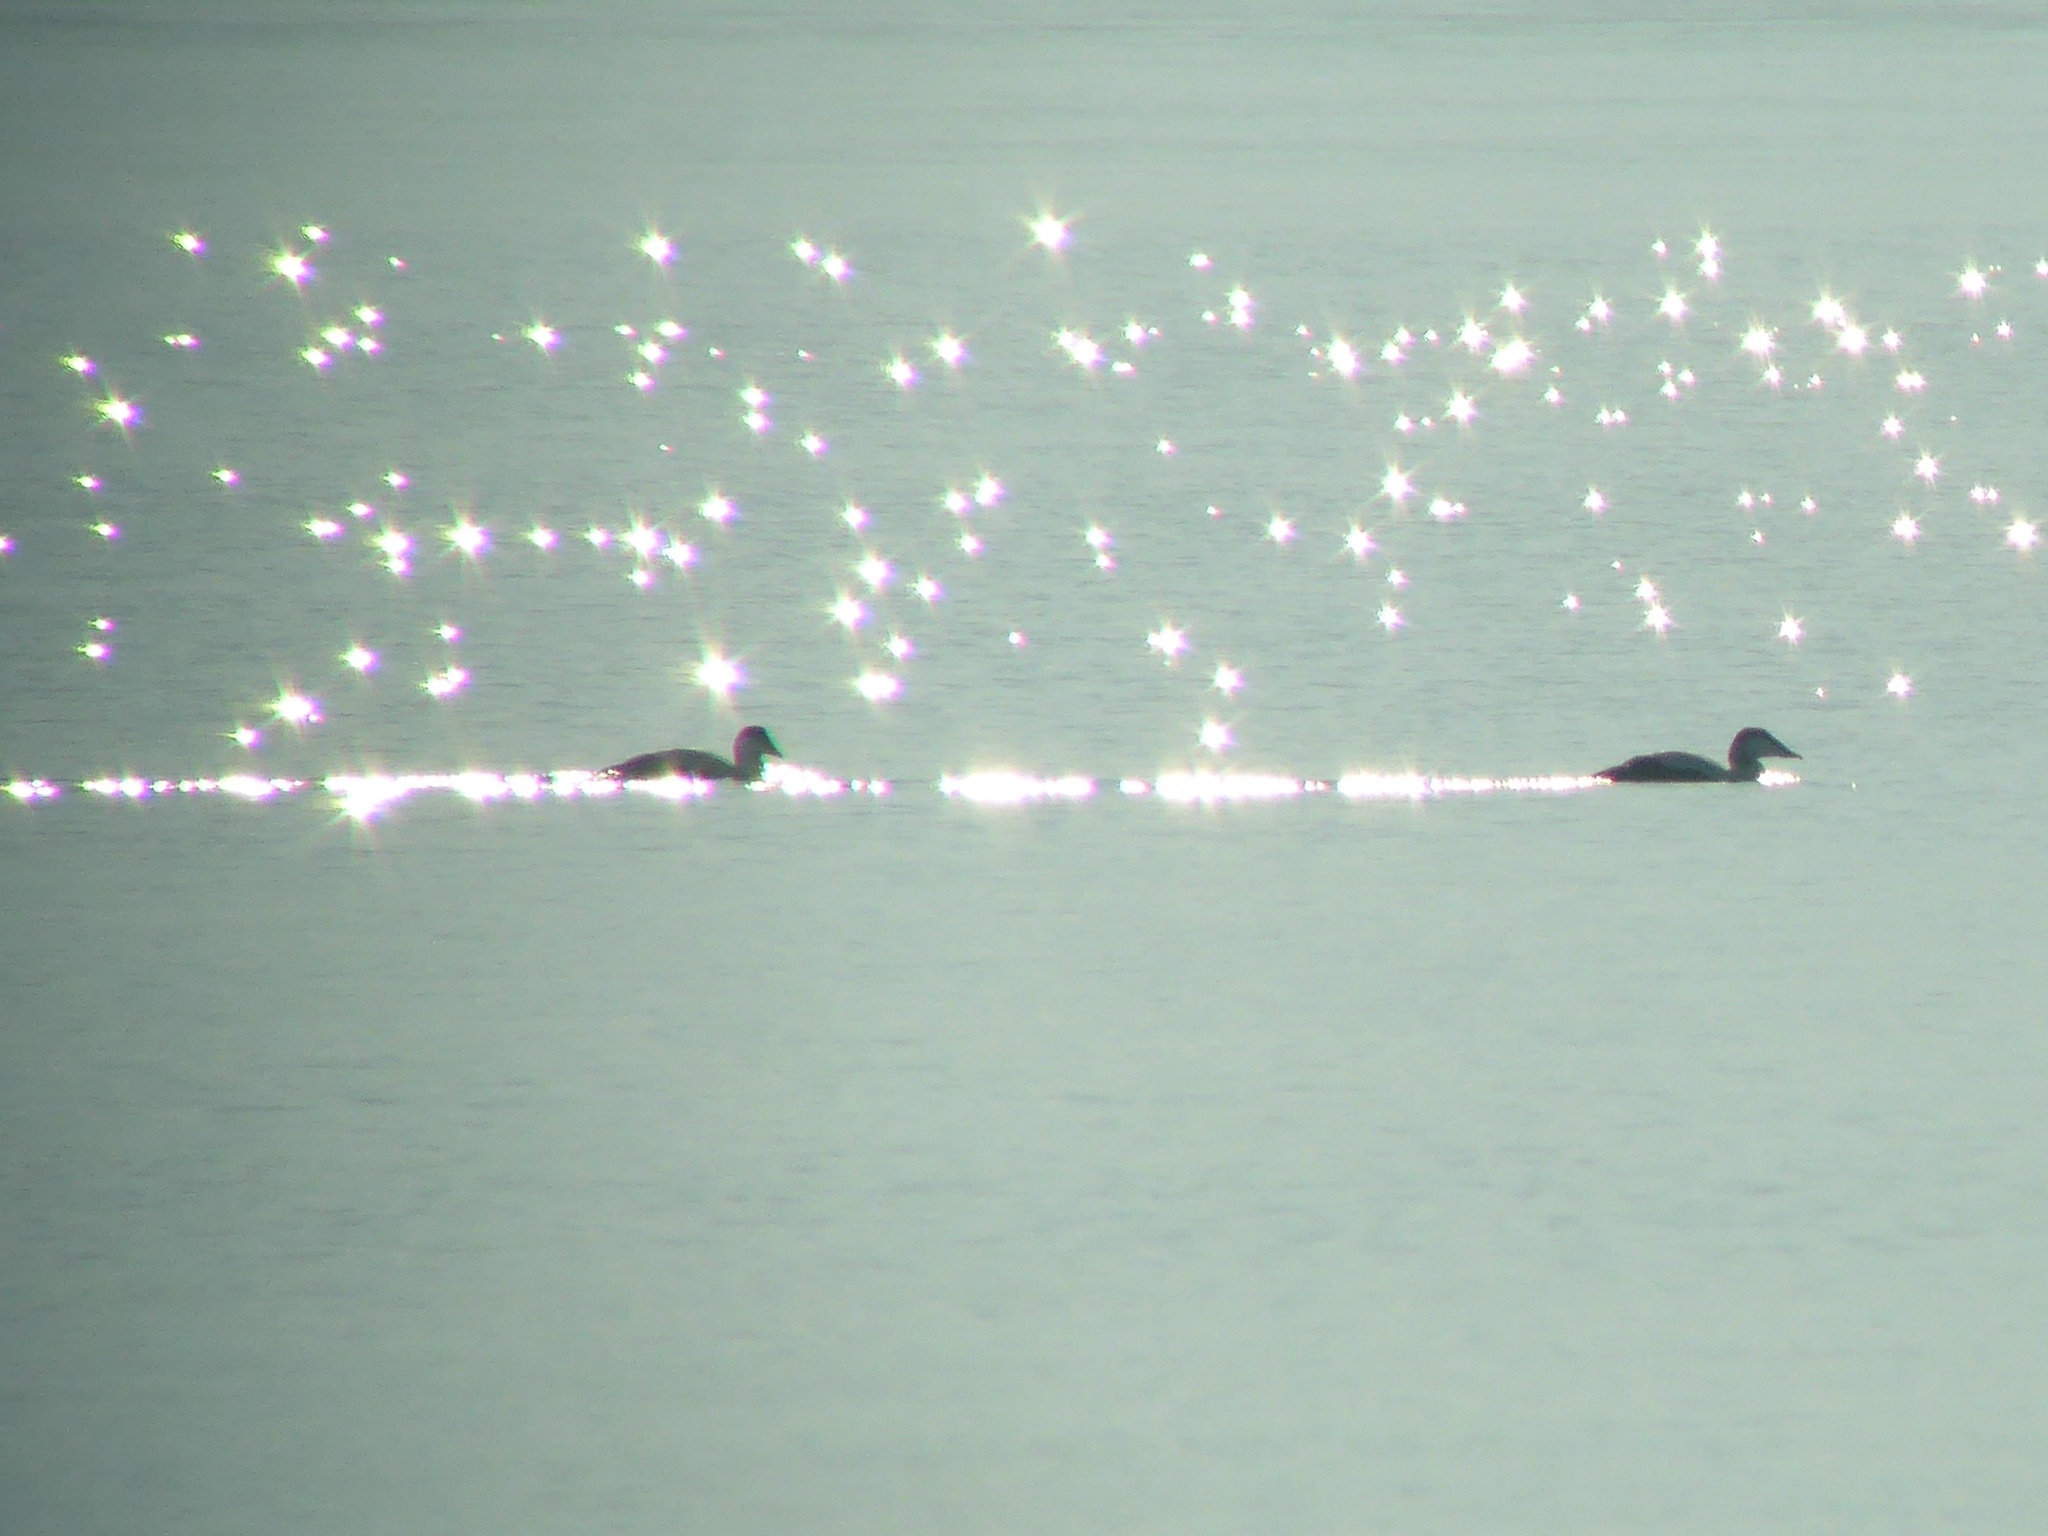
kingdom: Animalia
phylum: Chordata
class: Aves
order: Anseriformes
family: Anatidae
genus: Somateria
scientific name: Somateria mollissima
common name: Common eider
